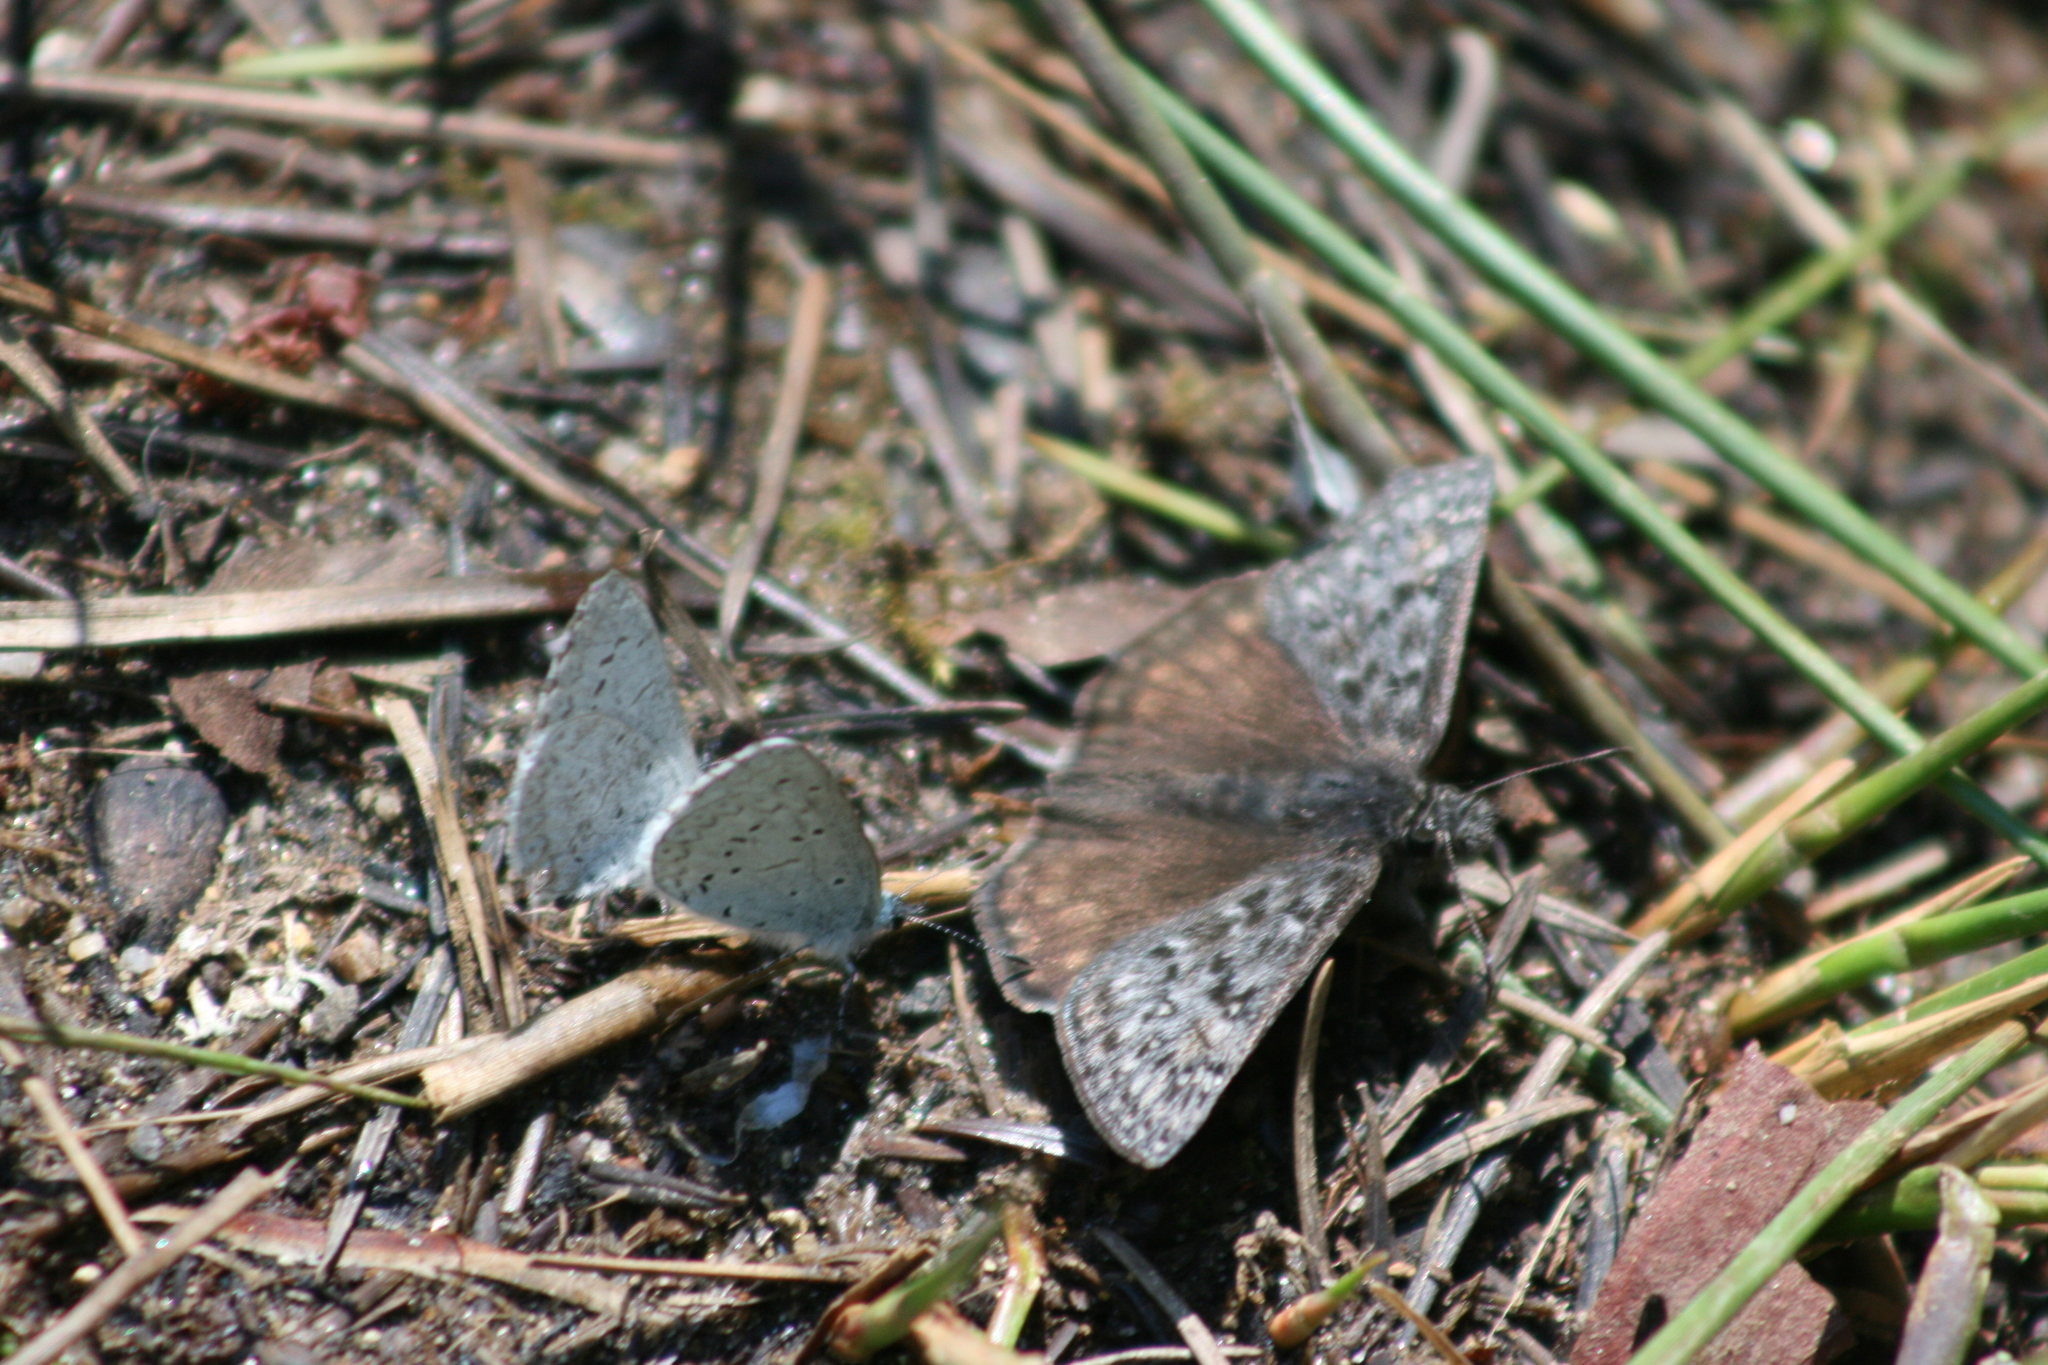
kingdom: Animalia
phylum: Arthropoda
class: Insecta
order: Lepidoptera
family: Lycaenidae
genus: Celastrina
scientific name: Celastrina ladon
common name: Spring azure
